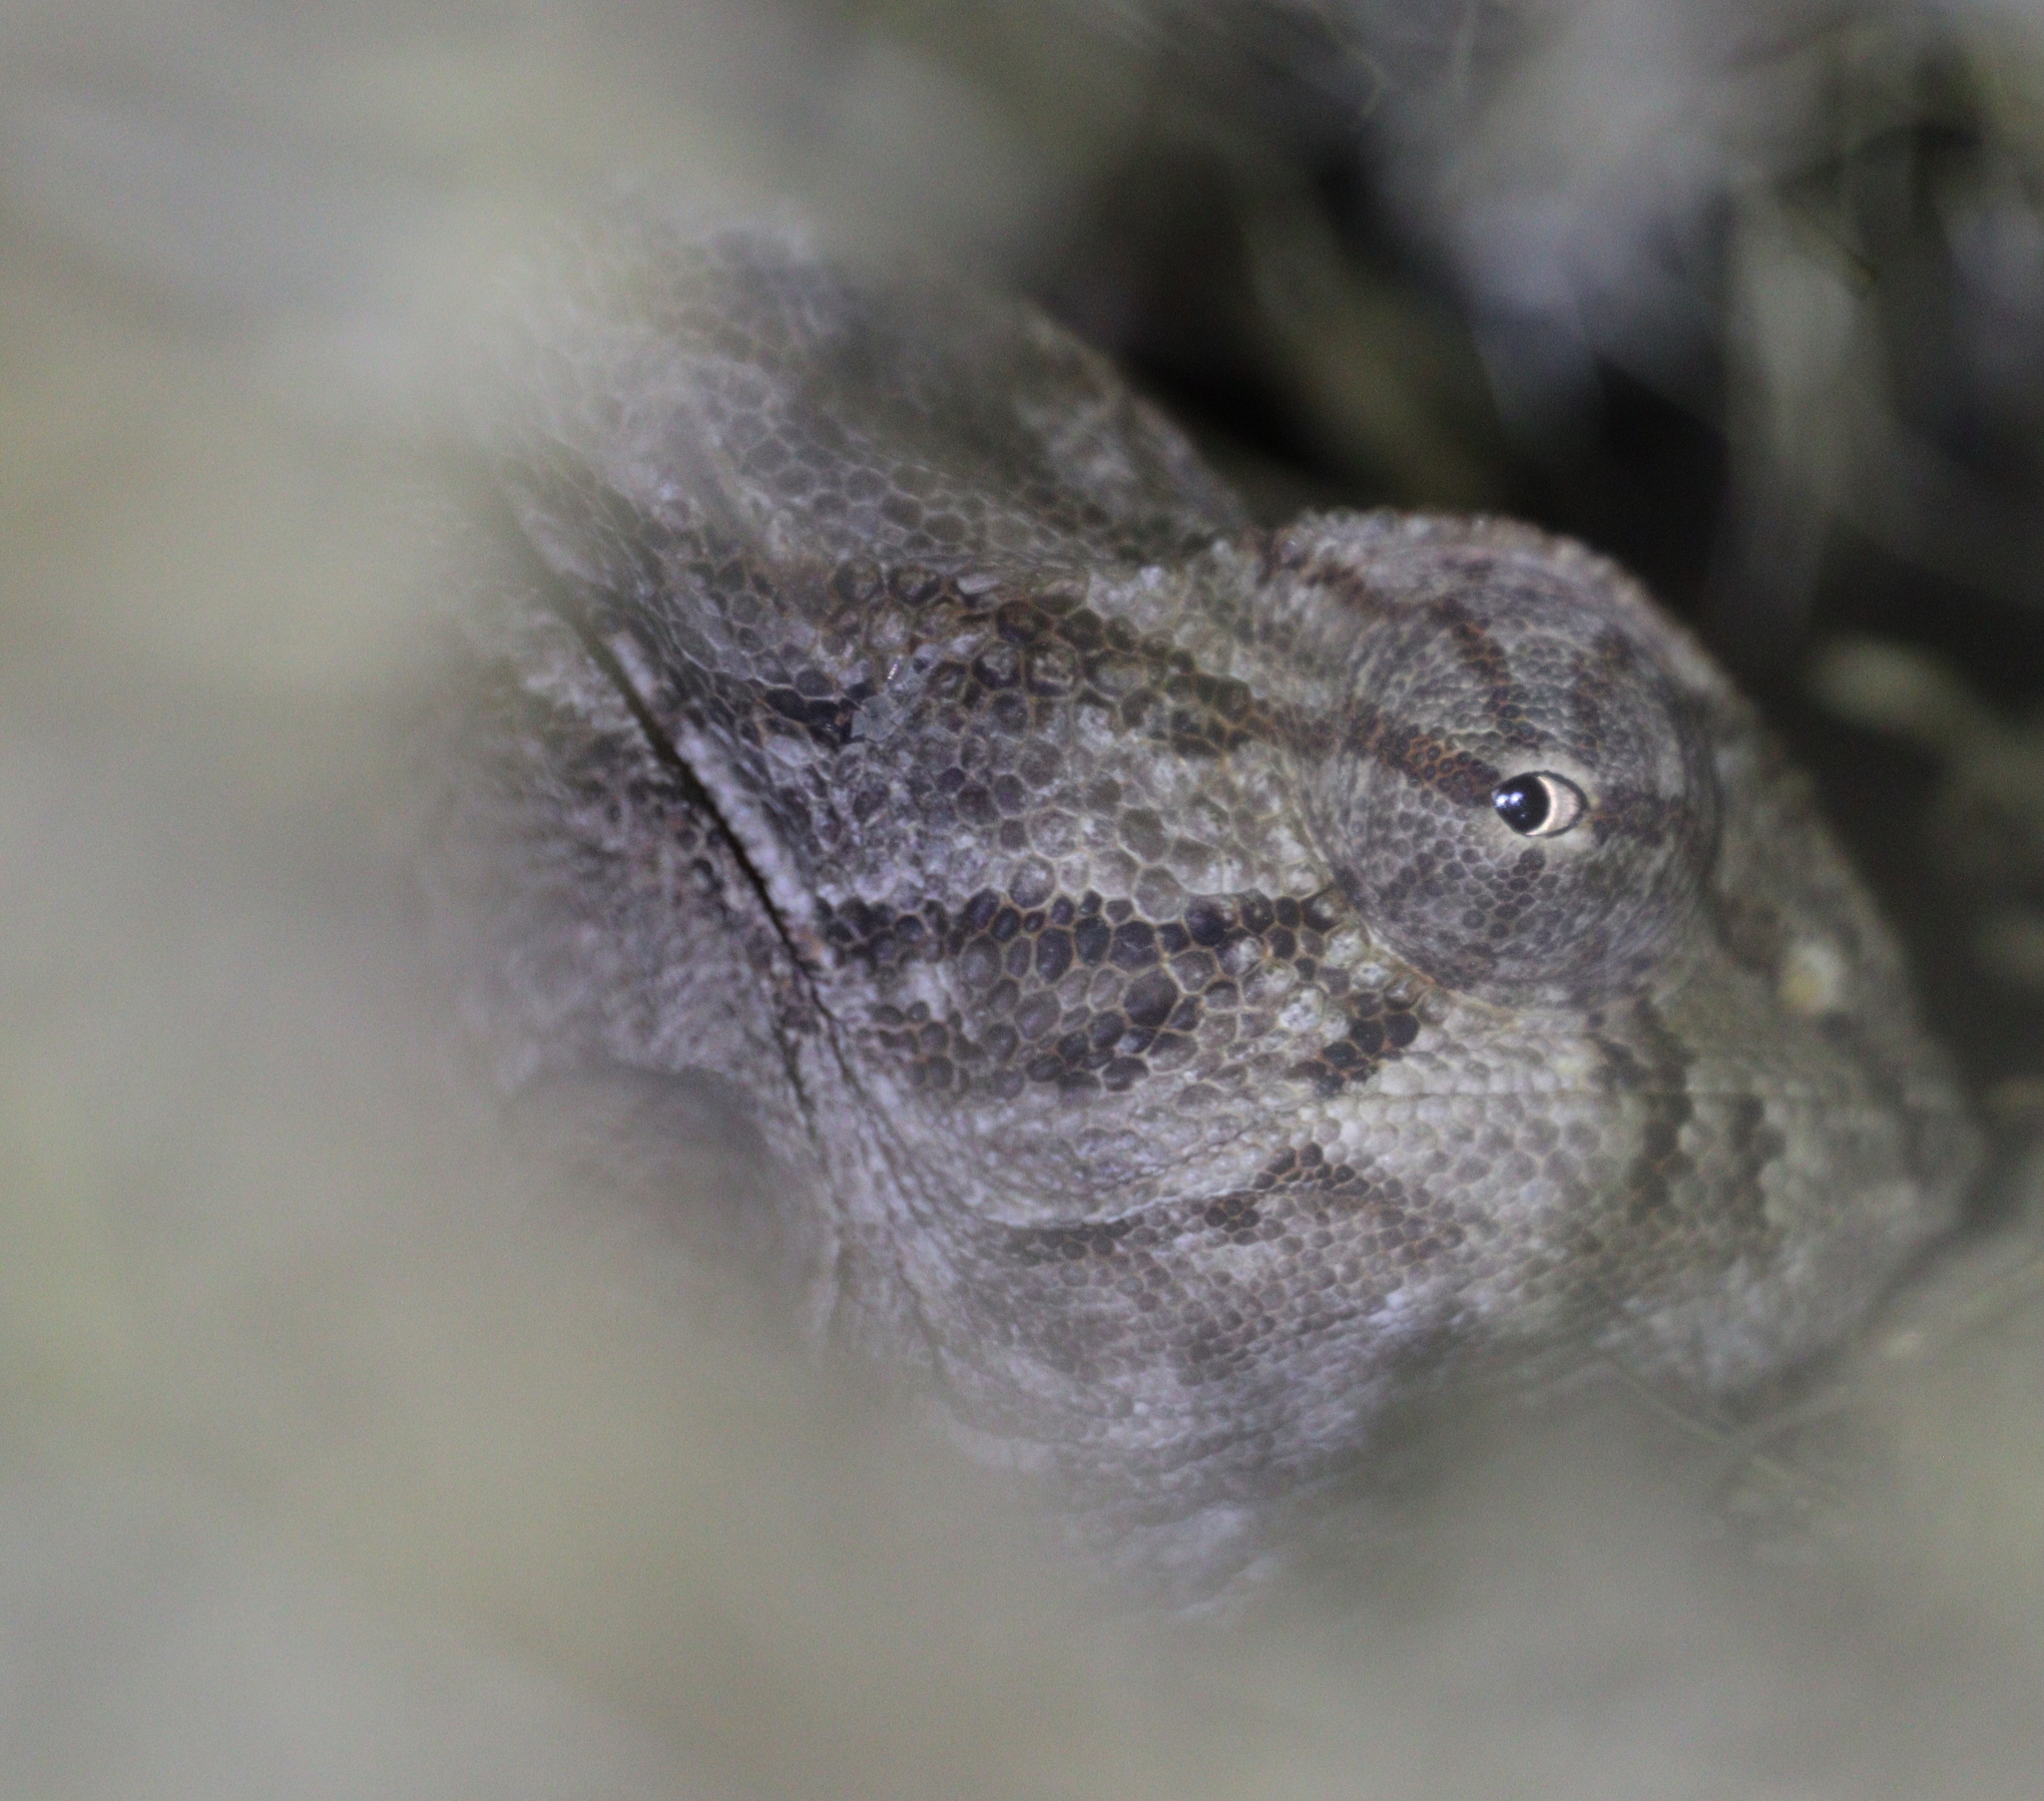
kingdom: Animalia
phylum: Chordata
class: Squamata
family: Chamaeleonidae
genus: Chamaeleo
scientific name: Chamaeleo chamaeleon
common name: Mediterranean chameleon
